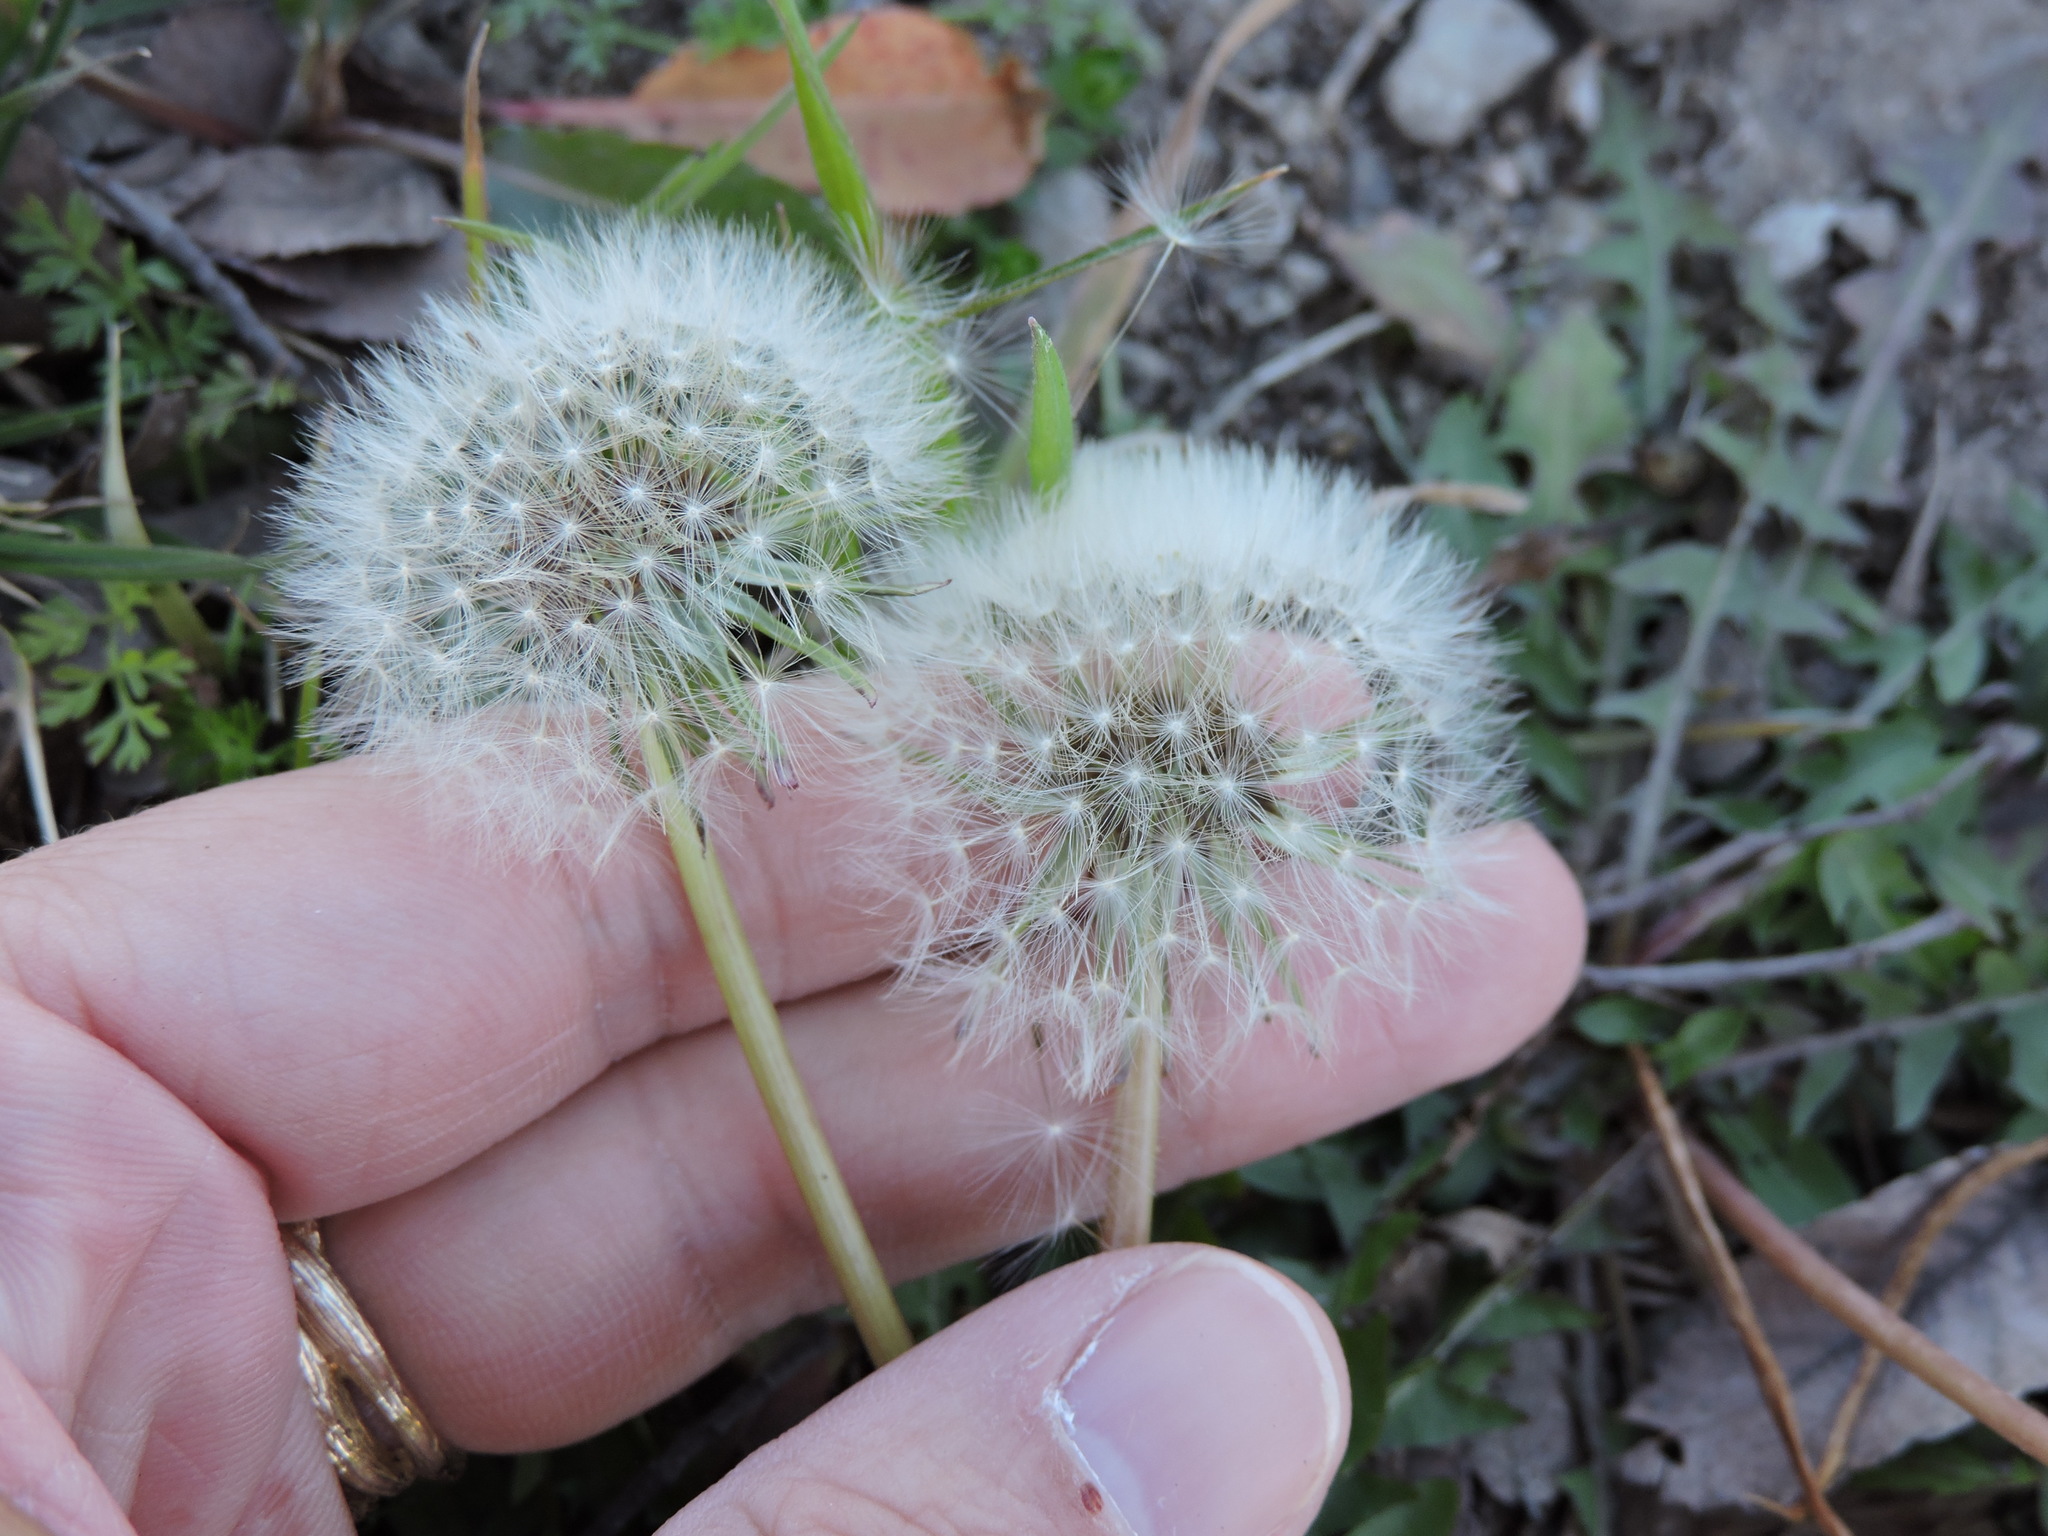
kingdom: Plantae
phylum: Tracheophyta
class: Magnoliopsida
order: Asterales
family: Asteraceae
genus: Taraxacum
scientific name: Taraxacum officinale
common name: Common dandelion
